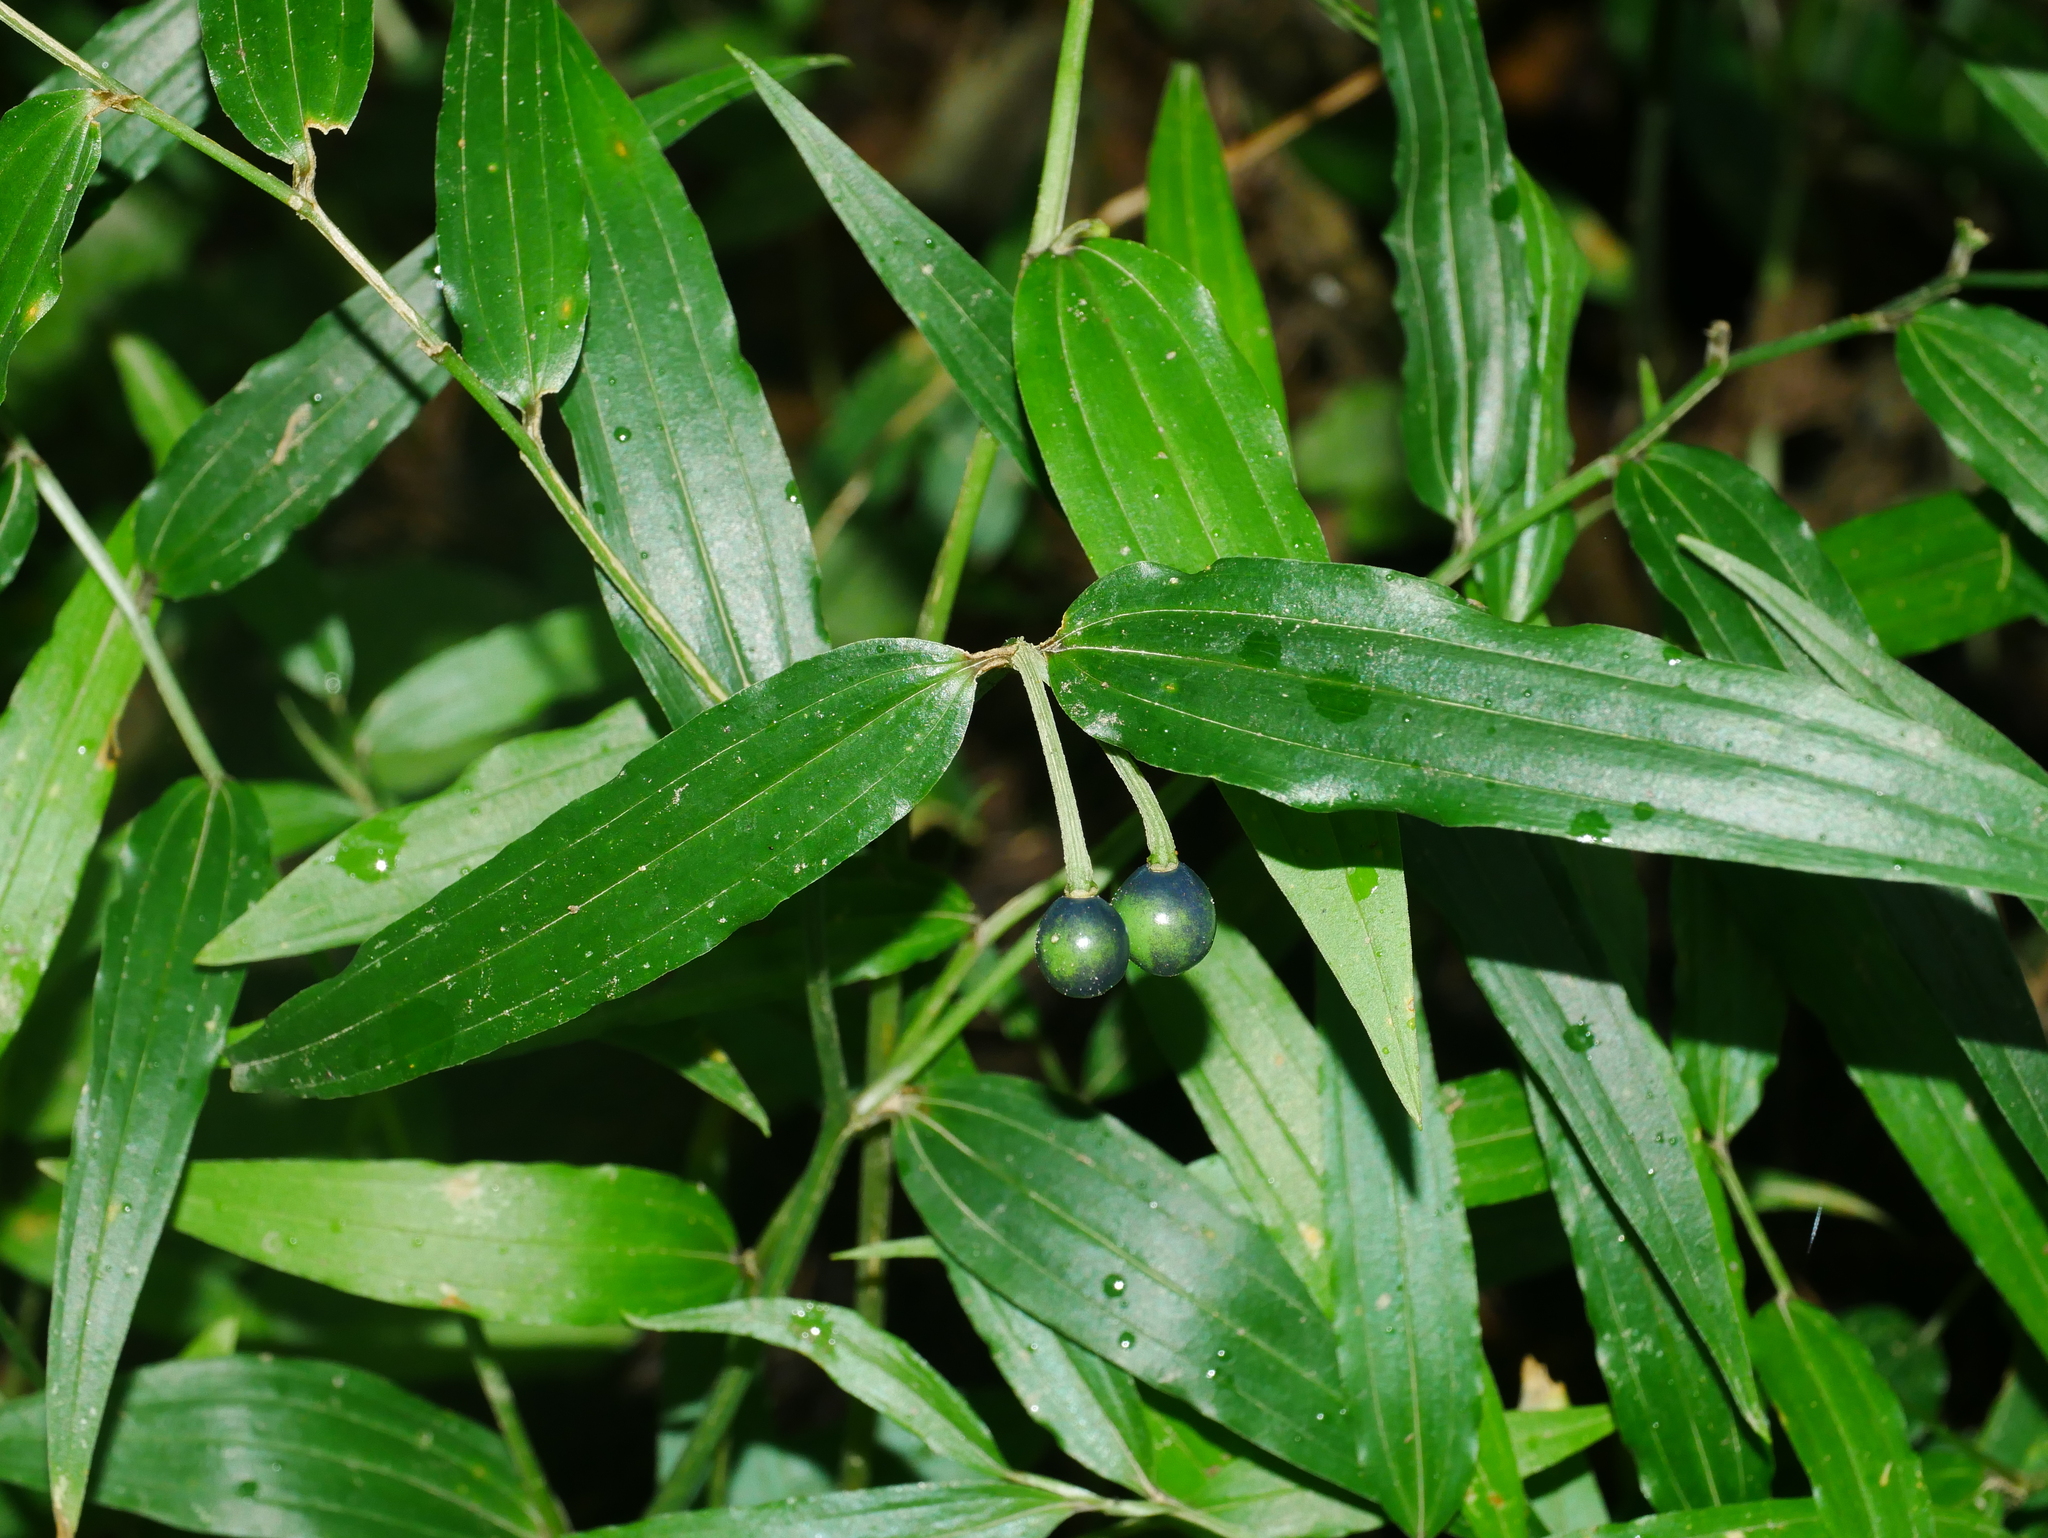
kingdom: Plantae
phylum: Tracheophyta
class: Liliopsida
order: Liliales
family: Colchicaceae
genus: Disporum
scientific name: Disporum sessile
